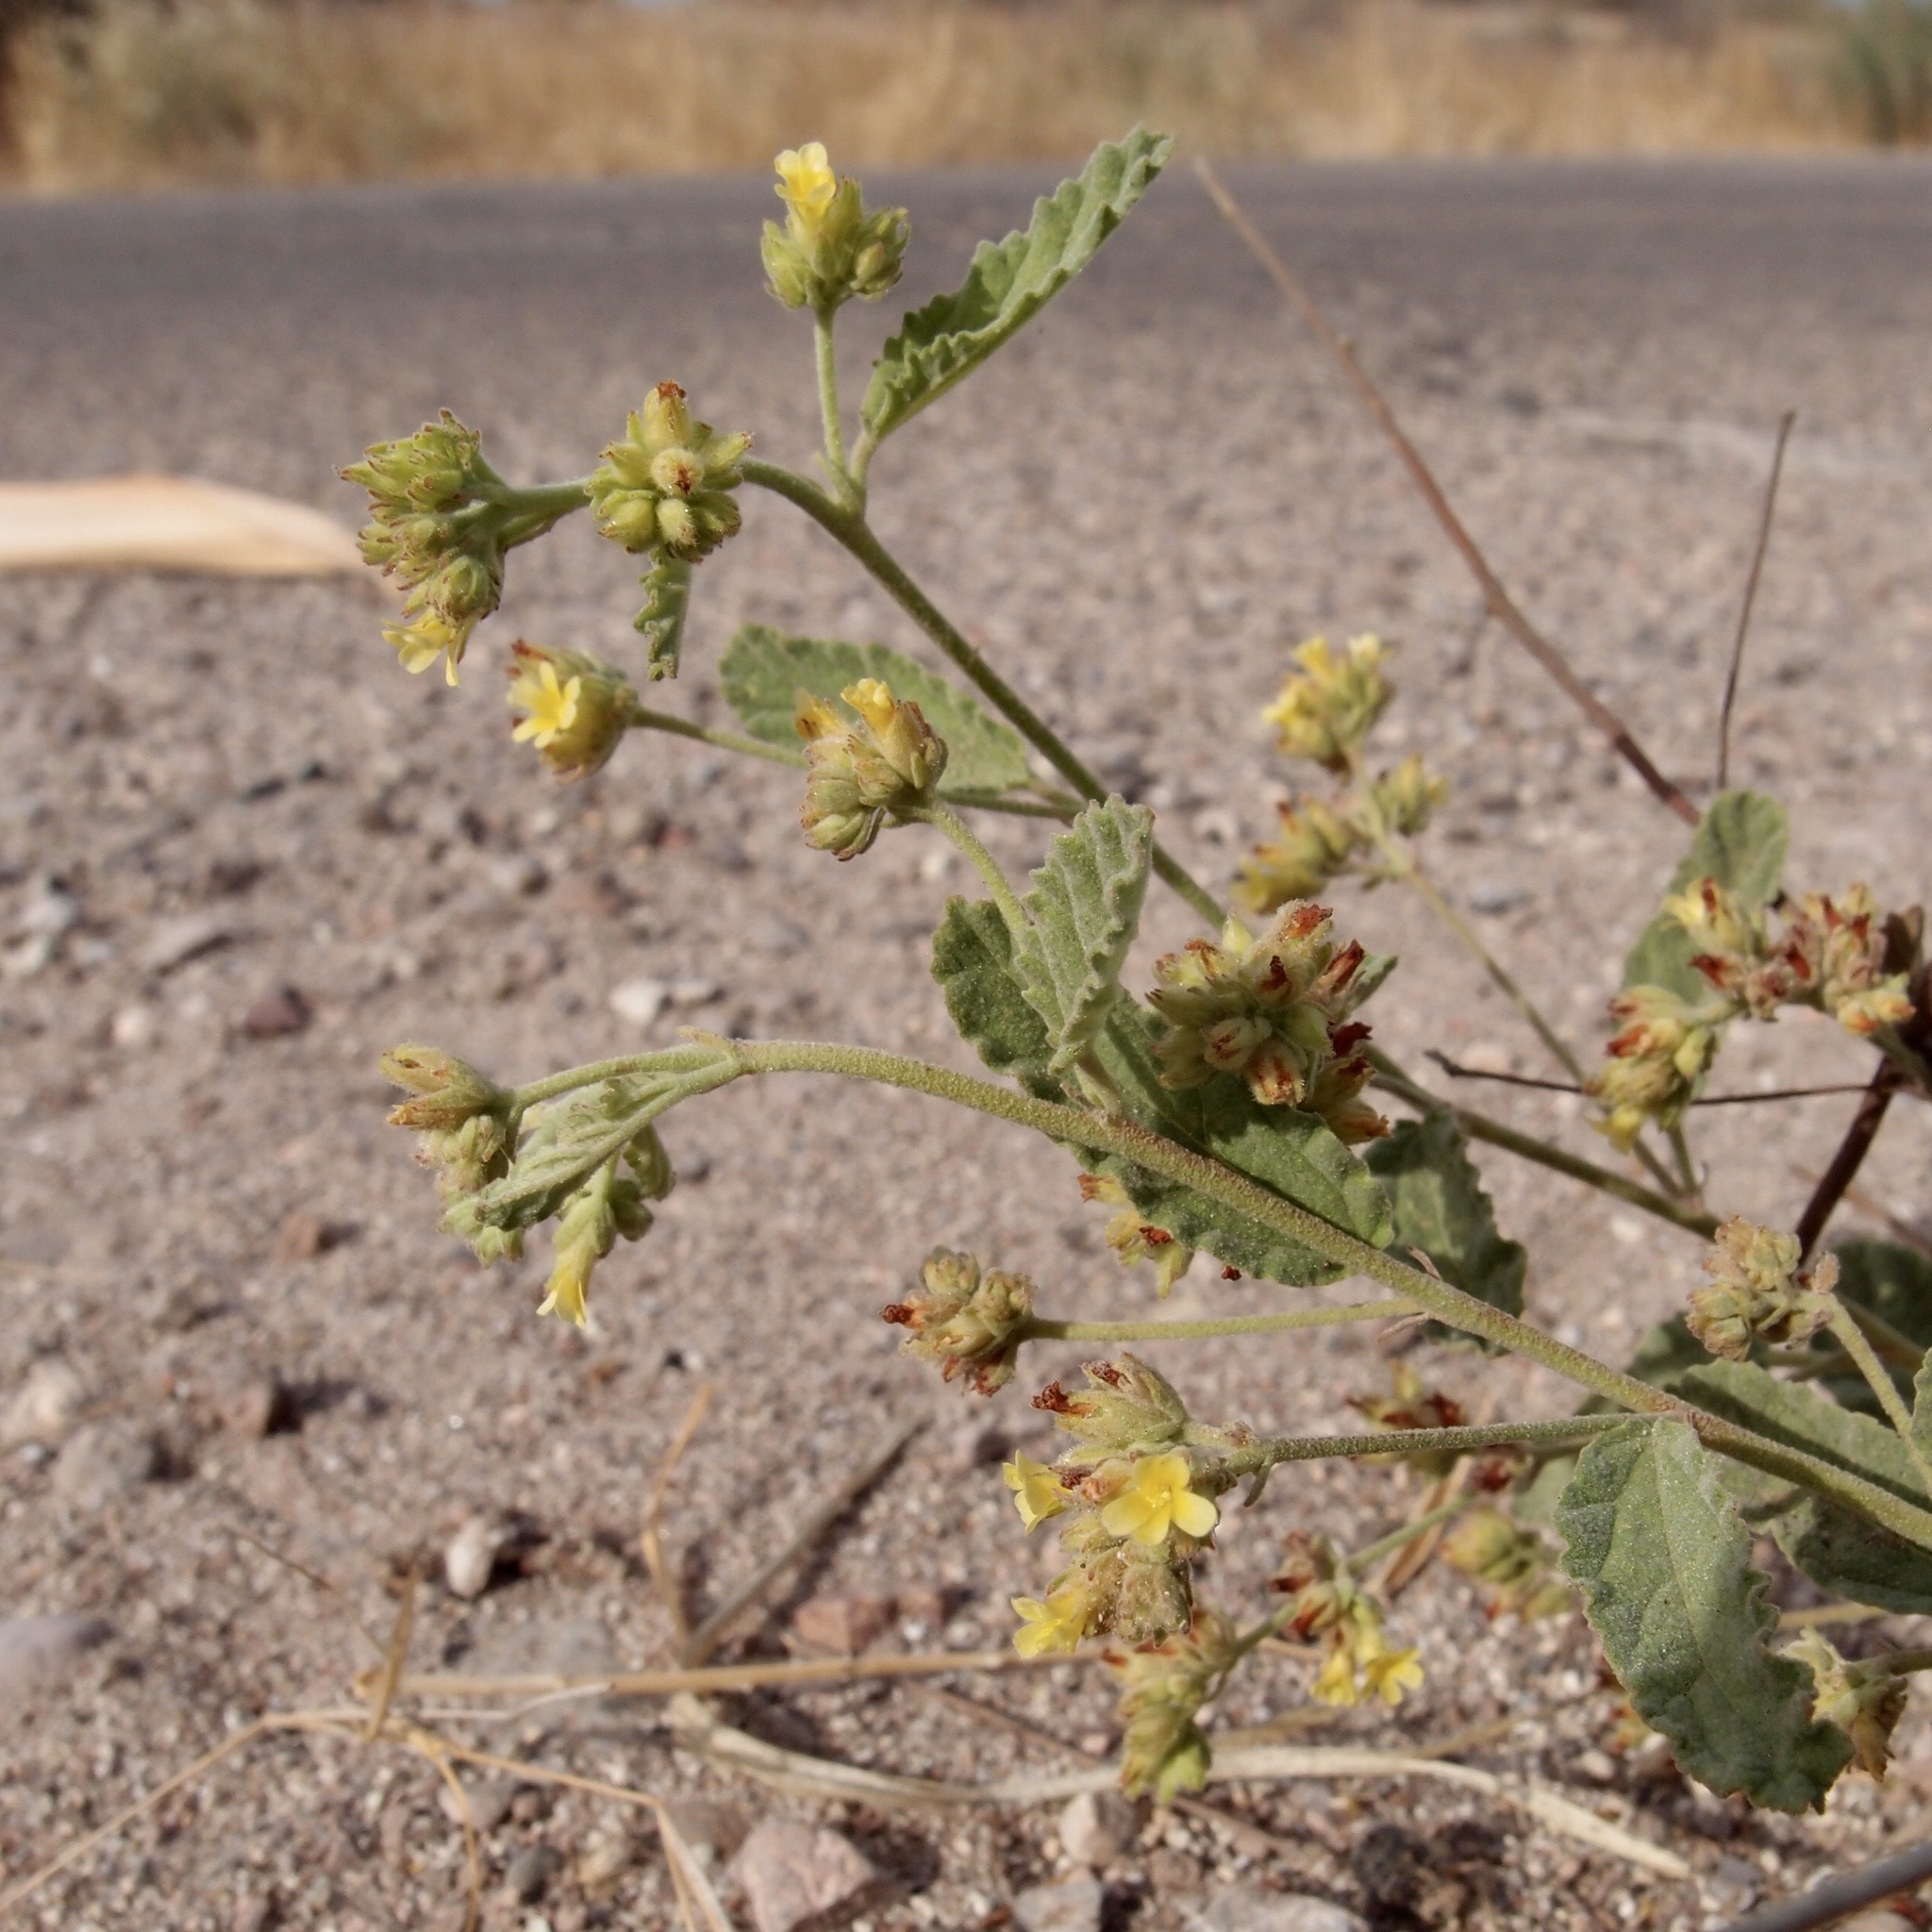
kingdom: Plantae
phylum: Tracheophyta
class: Magnoliopsida
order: Malvales
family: Malvaceae
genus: Waltheria
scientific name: Waltheria indica
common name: Leather-coat
